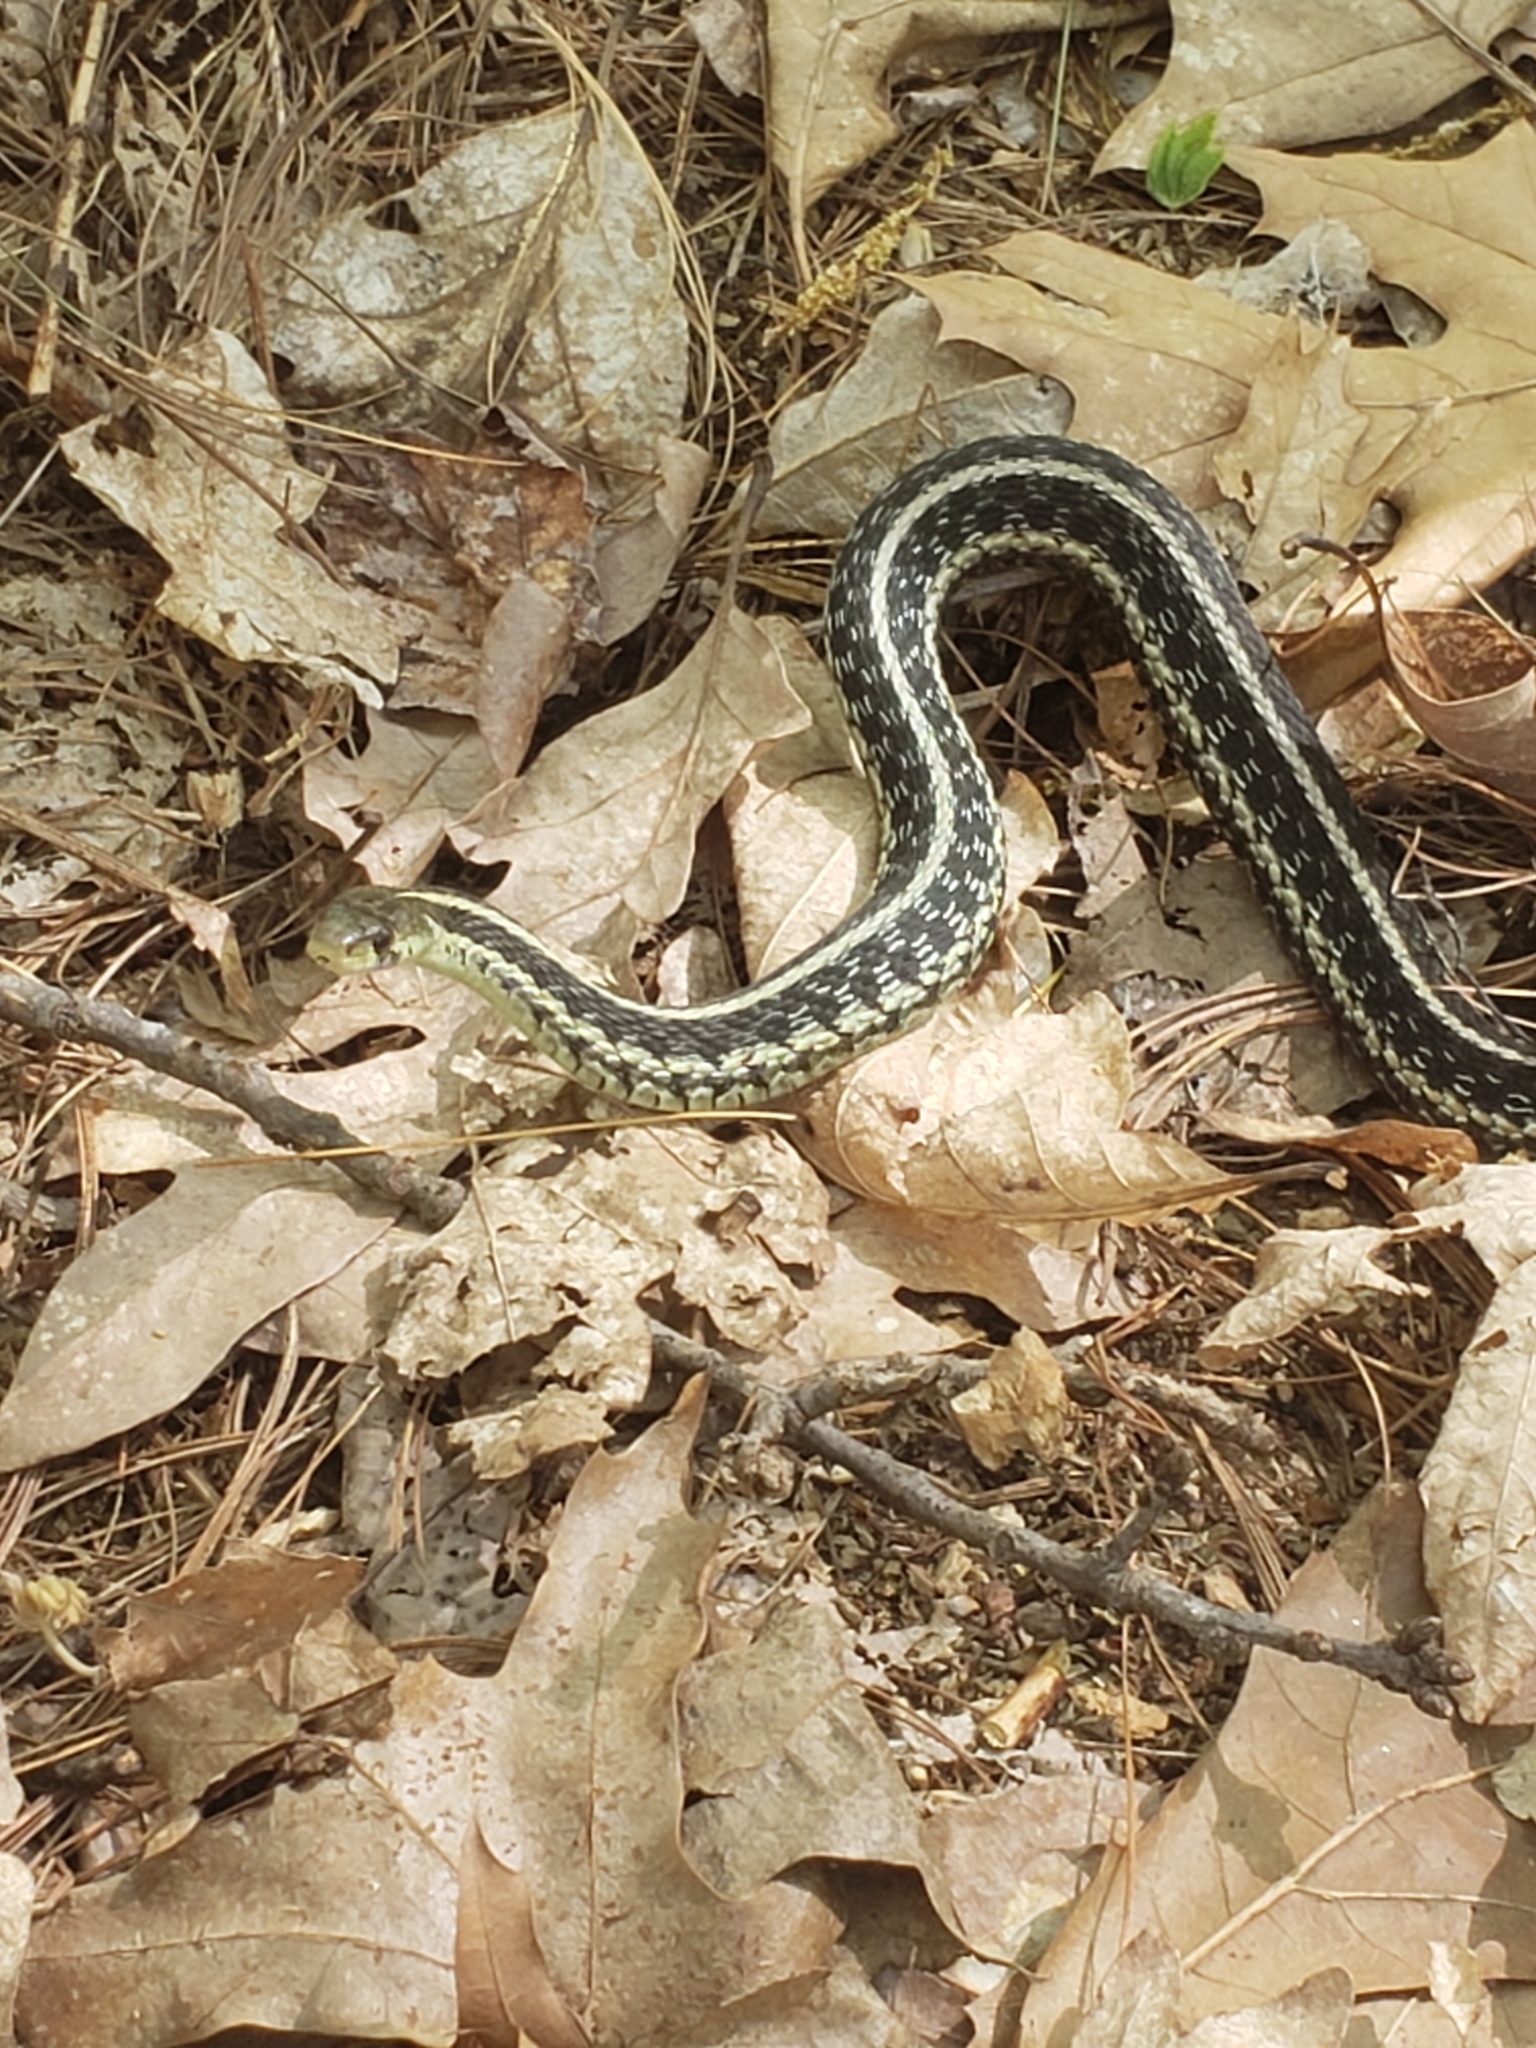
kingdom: Animalia
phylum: Chordata
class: Squamata
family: Colubridae
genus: Thamnophis
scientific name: Thamnophis sirtalis
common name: Common garter snake
